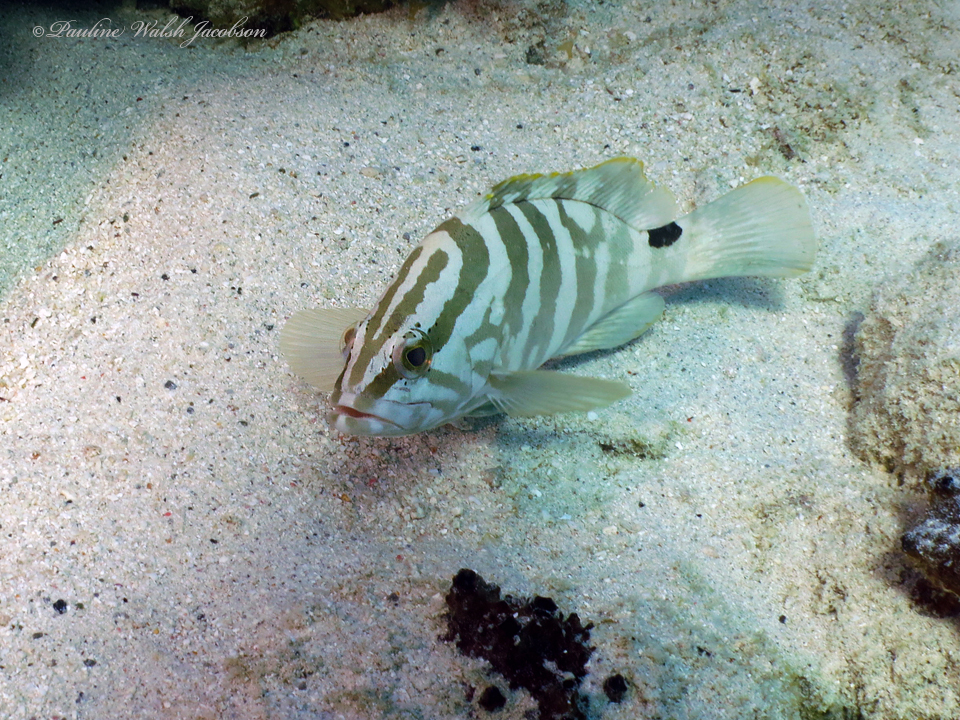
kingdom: Animalia
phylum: Chordata
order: Perciformes
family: Serranidae
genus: Epinephelus
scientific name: Epinephelus striatus
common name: Nassau grouper
